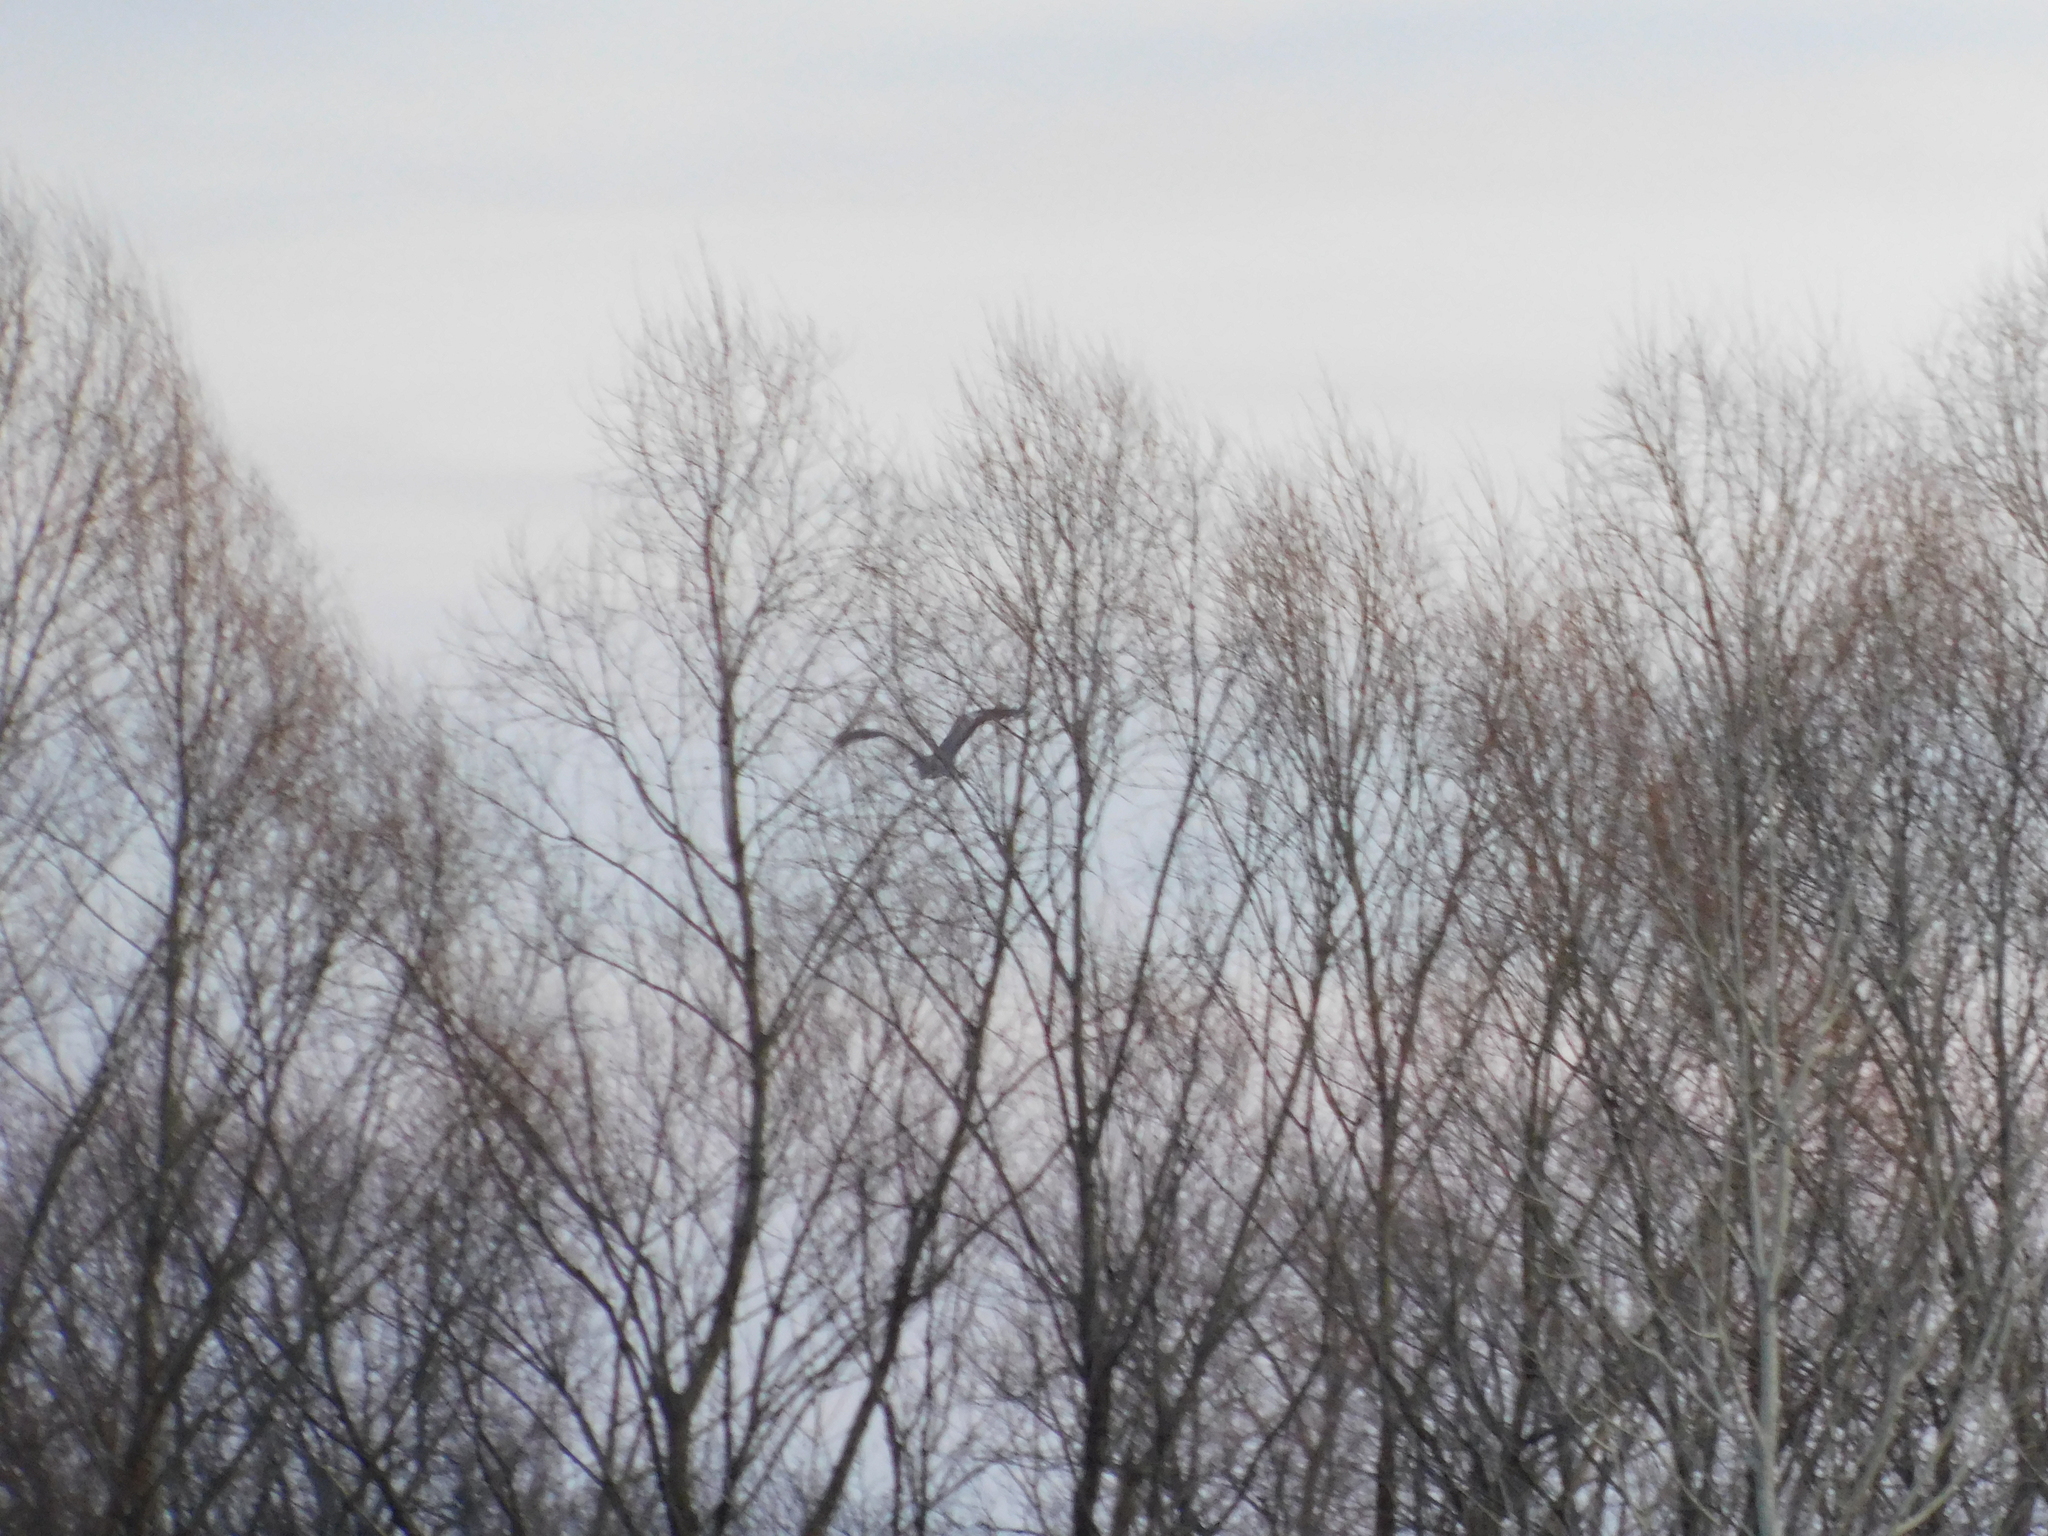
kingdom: Animalia
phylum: Chordata
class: Aves
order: Pelecaniformes
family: Ardeidae
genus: Ardea
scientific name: Ardea cinerea
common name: Grey heron
